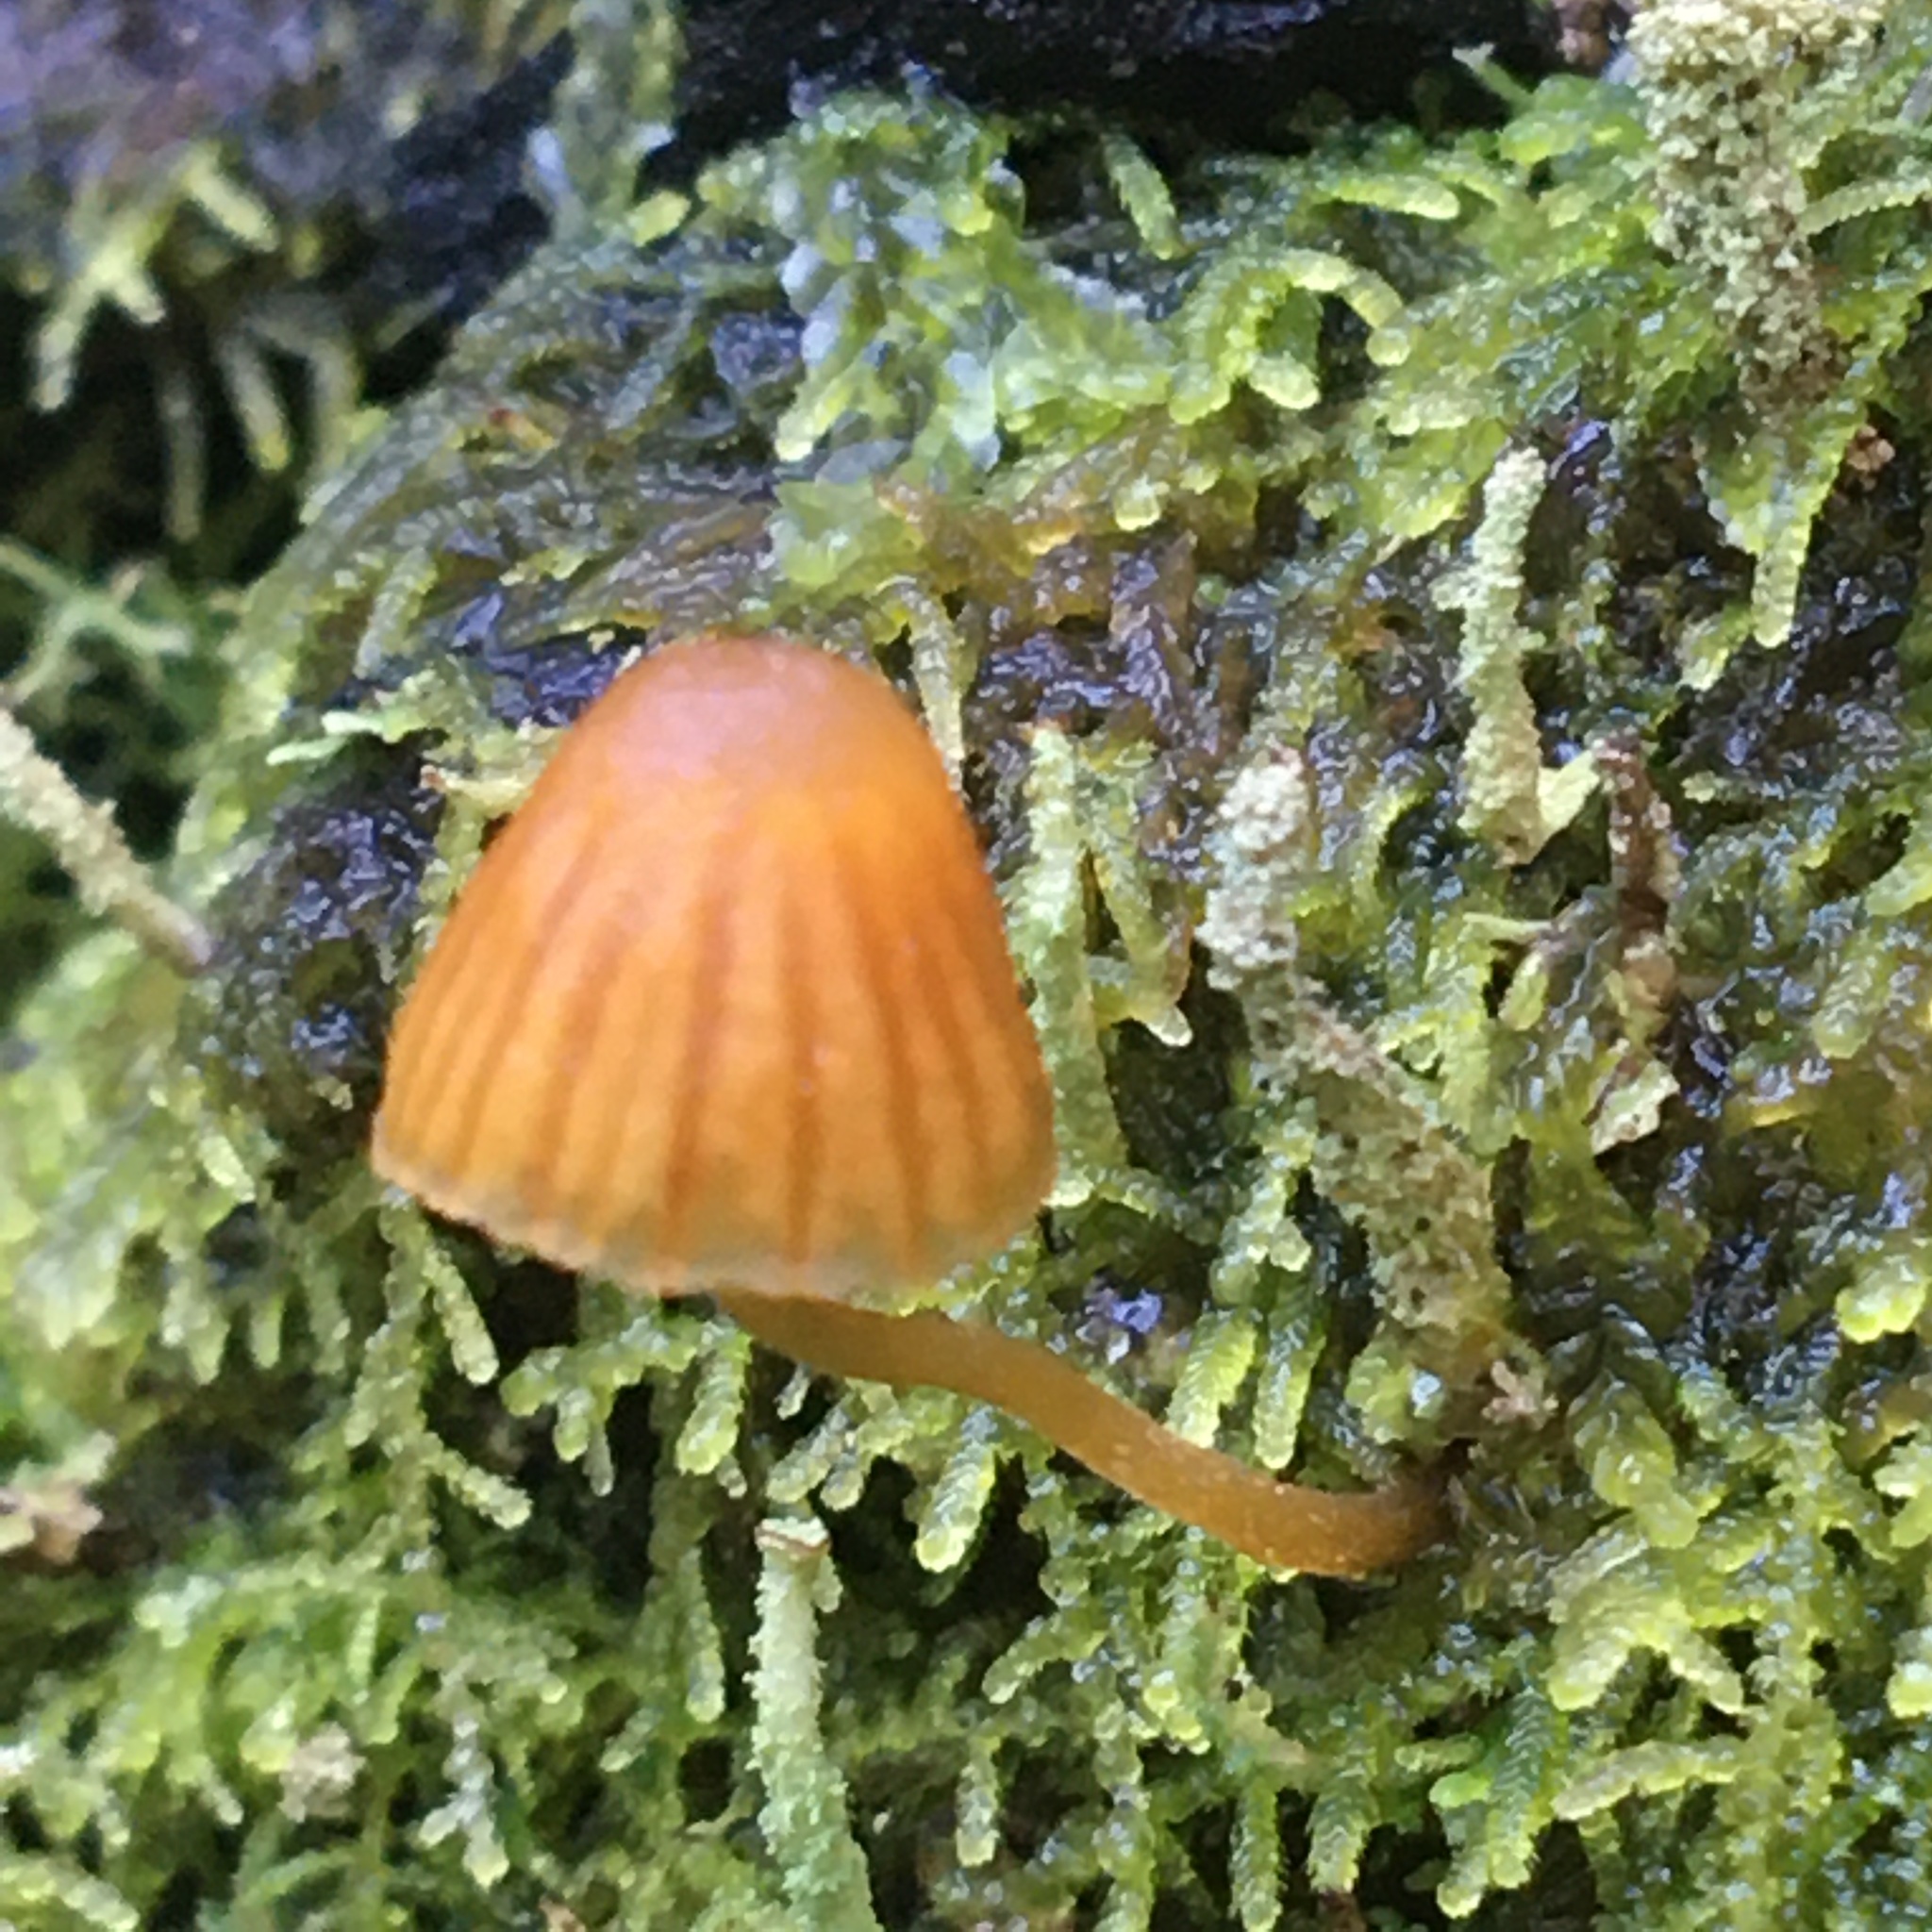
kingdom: Fungi
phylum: Basidiomycota
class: Agaricomycetes
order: Agaricales
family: Hymenogastraceae
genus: Galerina
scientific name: Galerina hypnorum
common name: Moss bell
